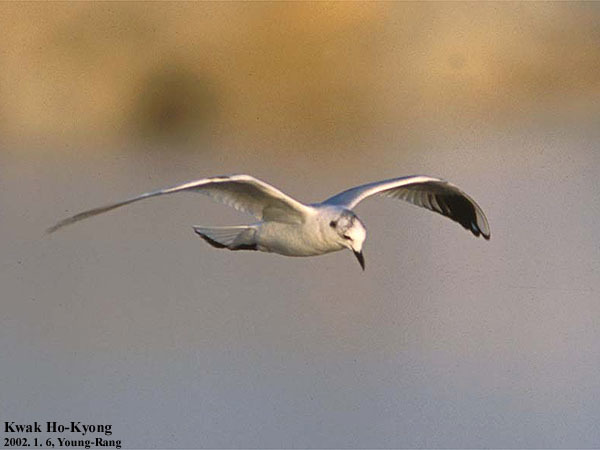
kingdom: Animalia
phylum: Chordata
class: Aves
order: Charadriiformes
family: Laridae
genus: Chroicocephalus
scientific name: Chroicocephalus saundersi
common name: Saunders's gull
